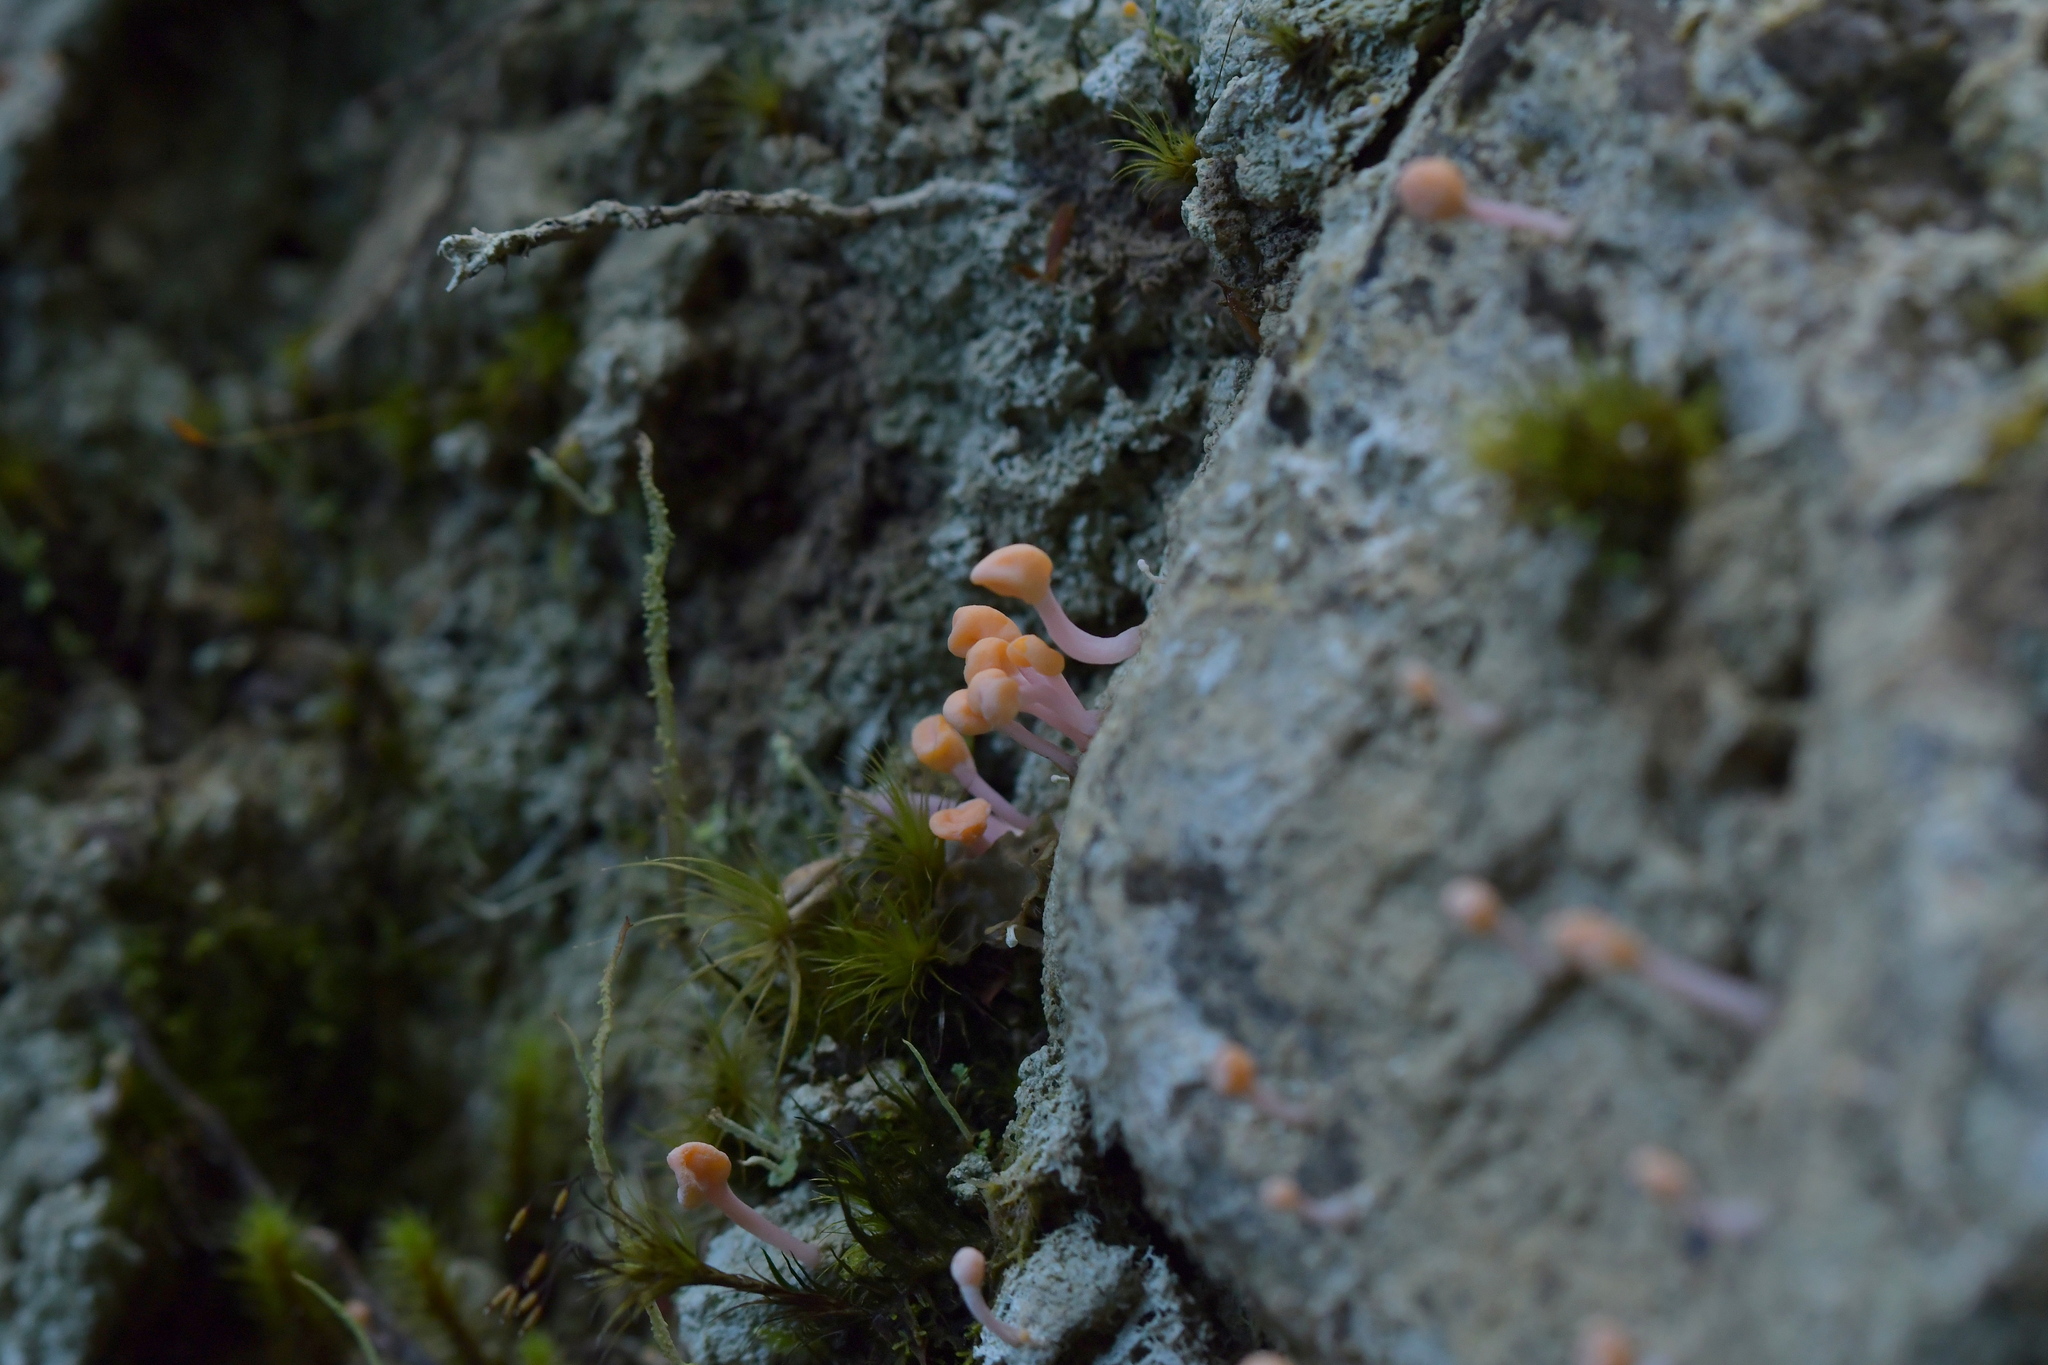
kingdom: Fungi
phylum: Ascomycota
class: Lecanoromycetes
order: Pertusariales
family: Icmadophilaceae
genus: Dibaeis
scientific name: Dibaeis arcuata
